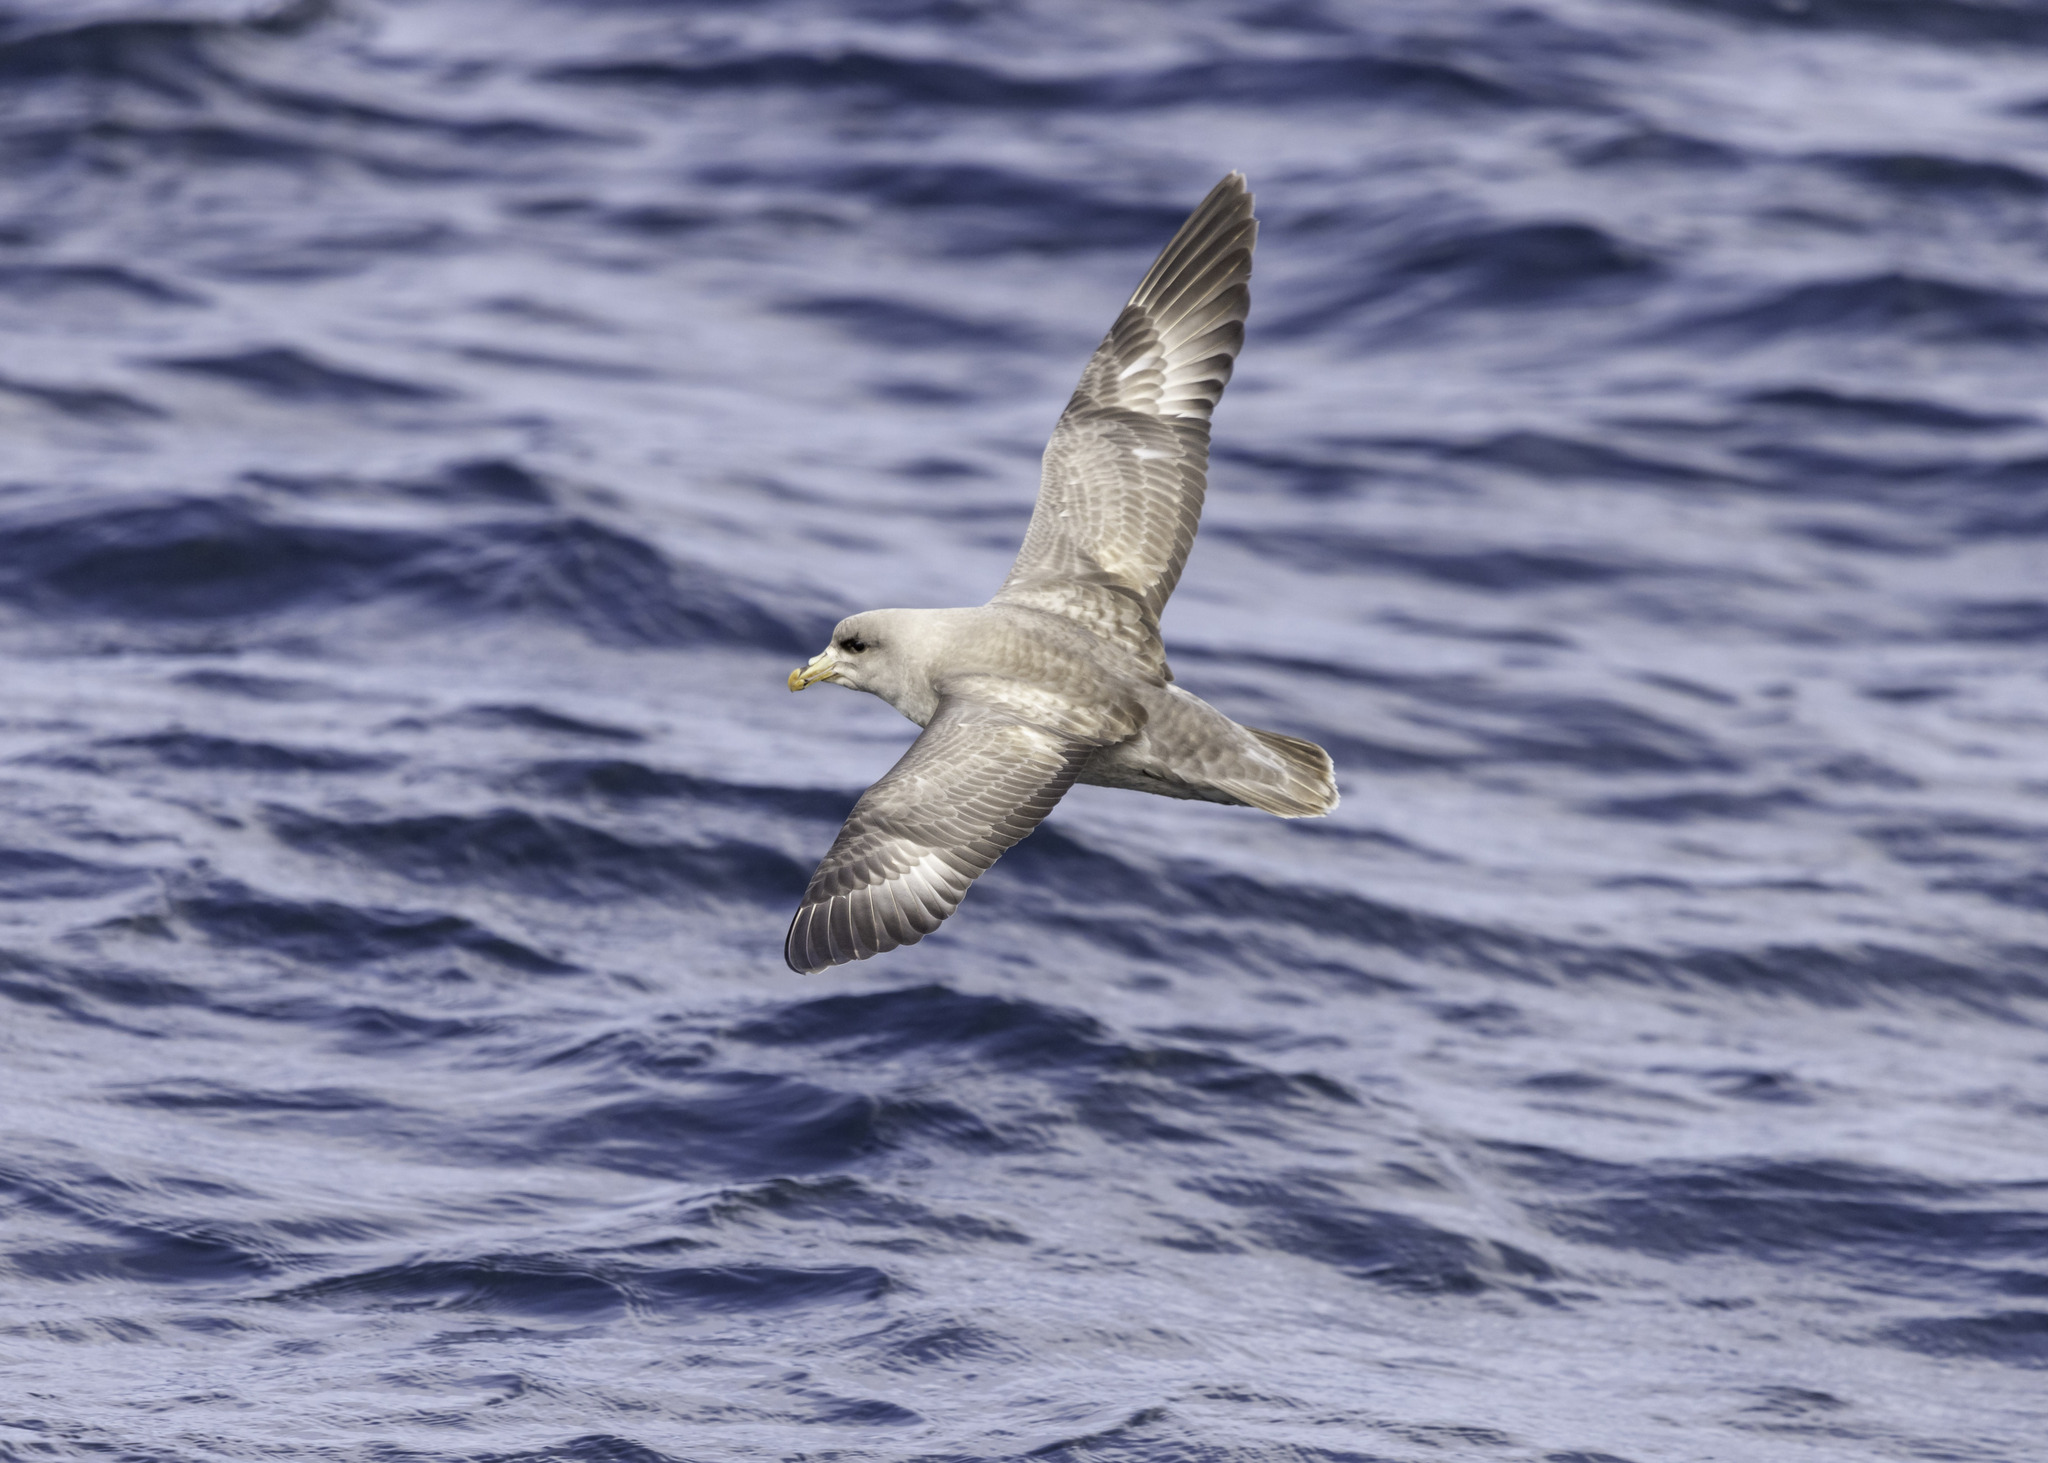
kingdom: Animalia
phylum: Chordata
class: Aves
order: Procellariiformes
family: Procellariidae
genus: Fulmarus
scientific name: Fulmarus glacialis
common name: Northern fulmar
